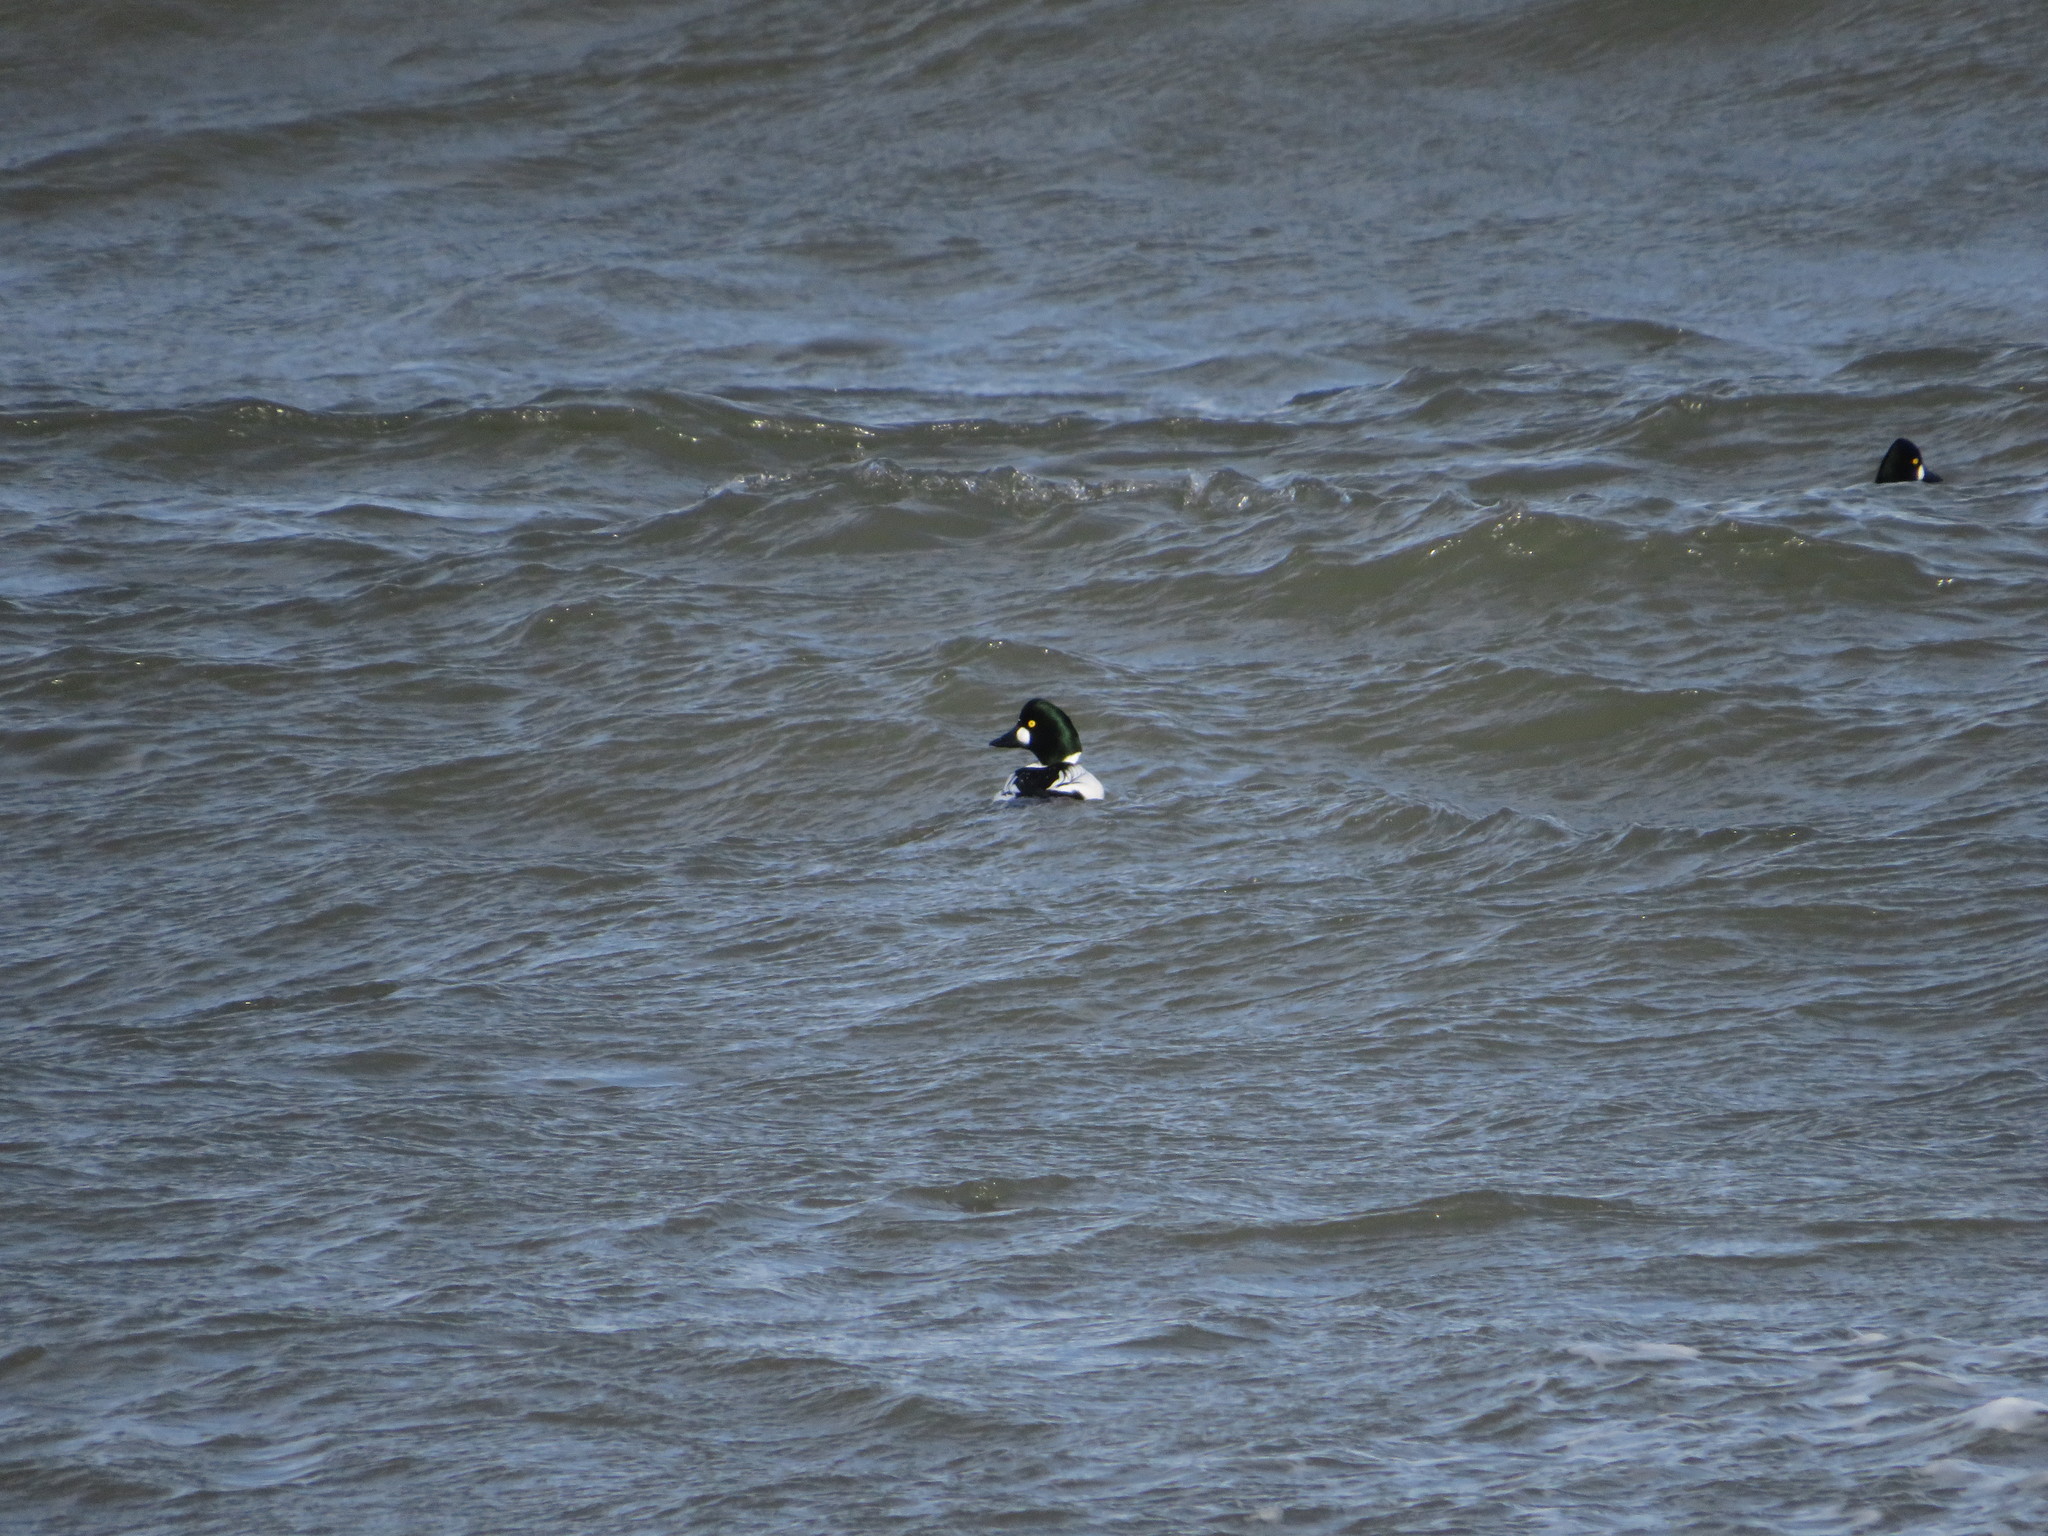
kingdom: Animalia
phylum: Chordata
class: Aves
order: Anseriformes
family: Anatidae
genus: Bucephala
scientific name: Bucephala clangula
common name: Common goldeneye
